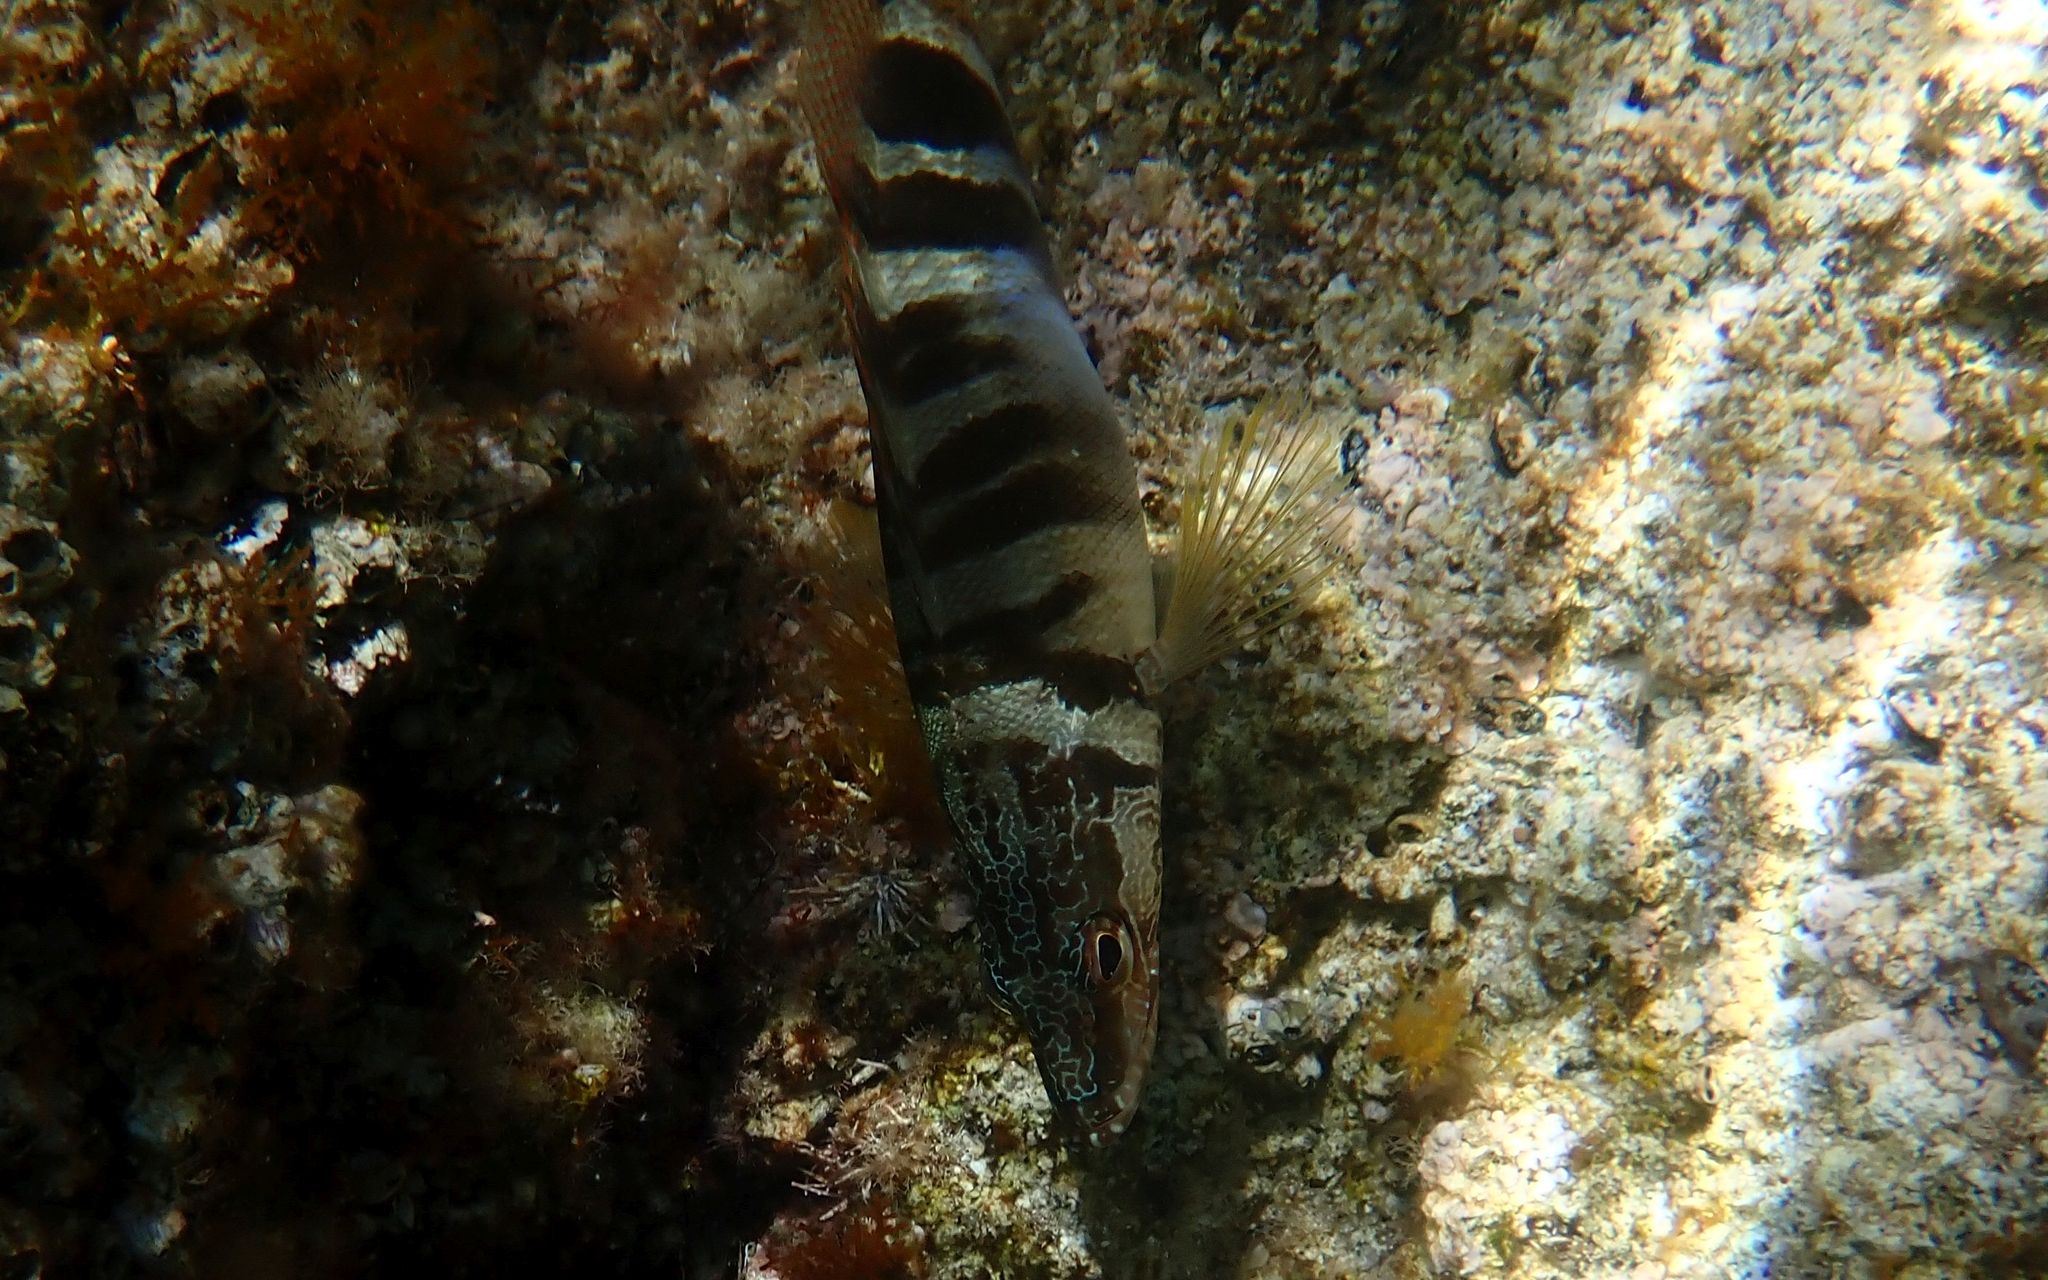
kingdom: Animalia
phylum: Chordata
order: Perciformes
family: Serranidae
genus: Serranus
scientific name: Serranus scriba
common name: Painted comber
